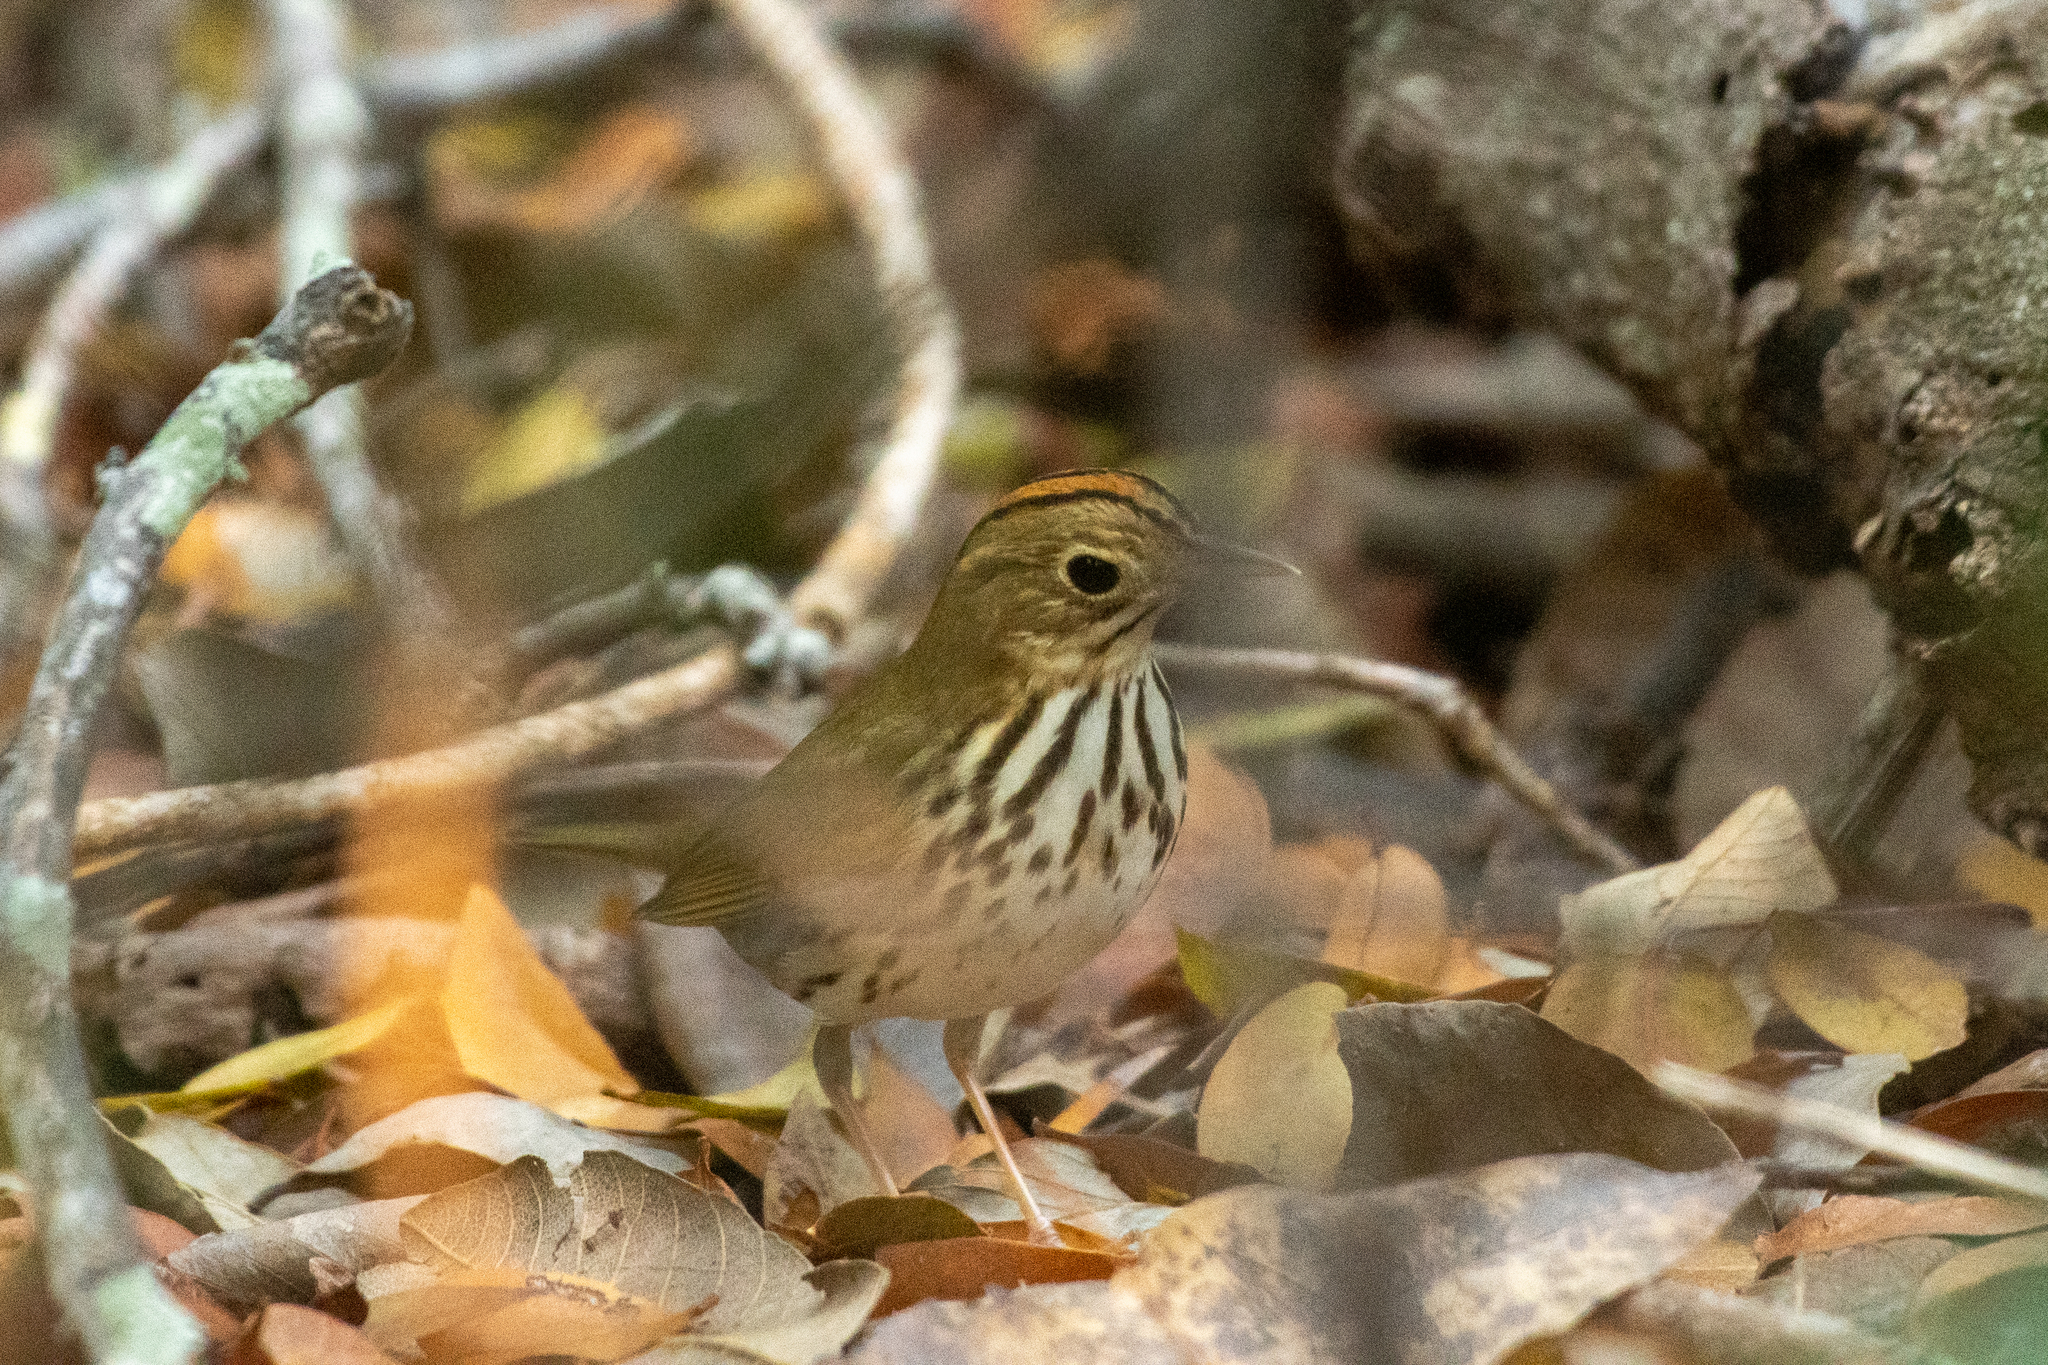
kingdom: Animalia
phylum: Chordata
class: Aves
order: Passeriformes
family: Parulidae
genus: Seiurus
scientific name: Seiurus aurocapilla
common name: Ovenbird
